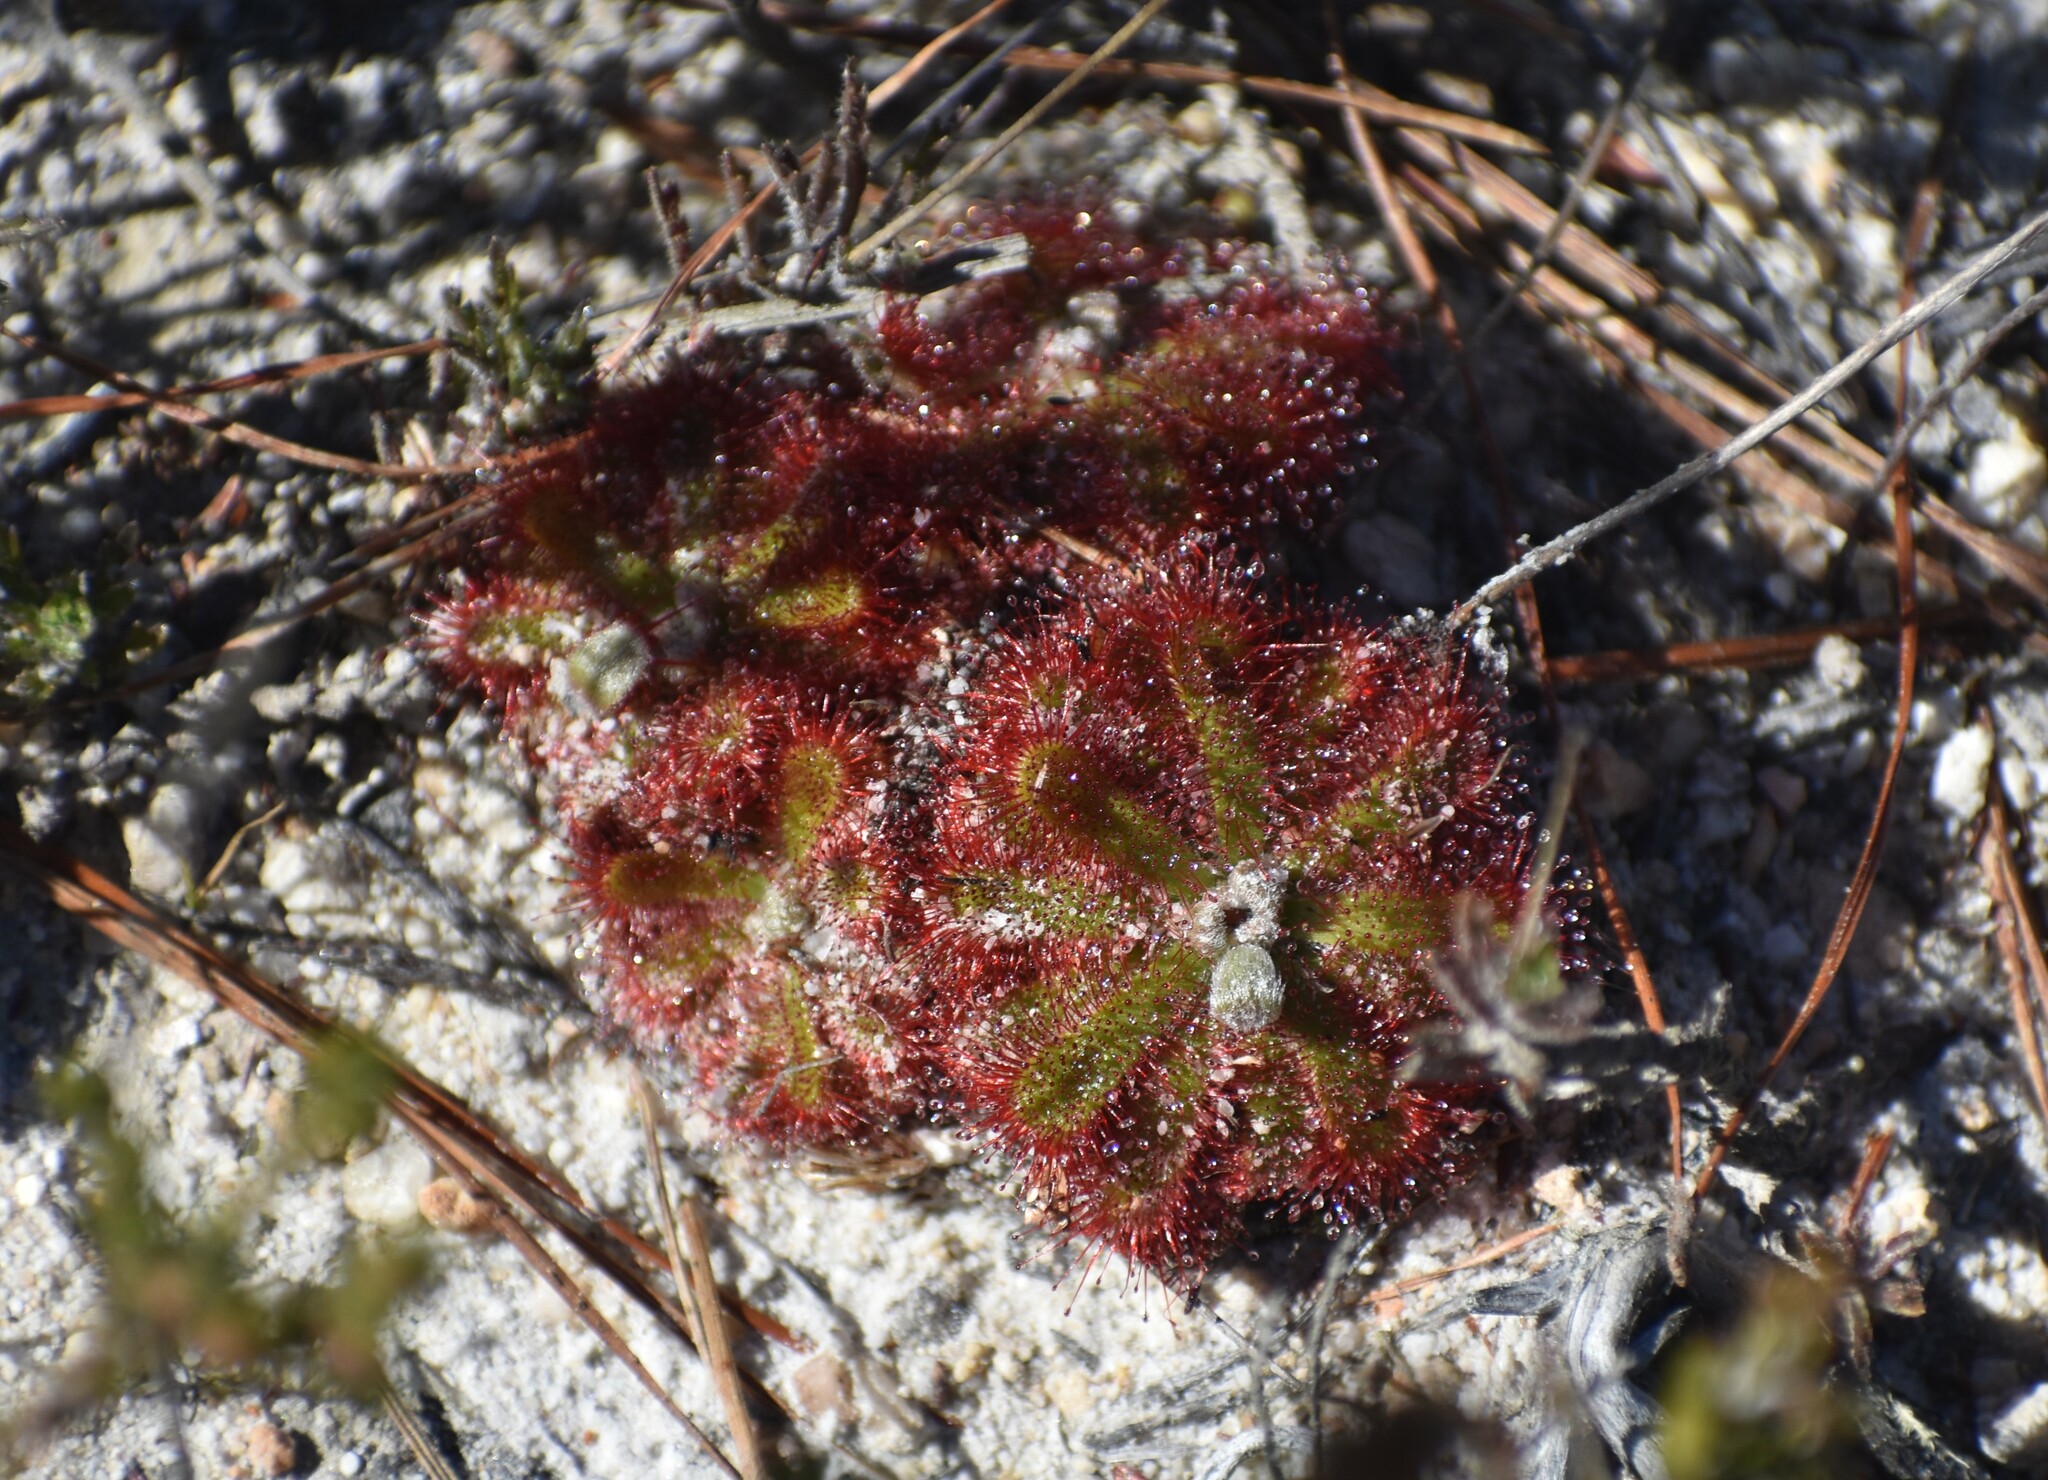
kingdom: Plantae
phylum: Tracheophyta
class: Magnoliopsida
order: Caryophyllales
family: Droseraceae
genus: Drosera
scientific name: Drosera aliciae
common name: Alice sundew
